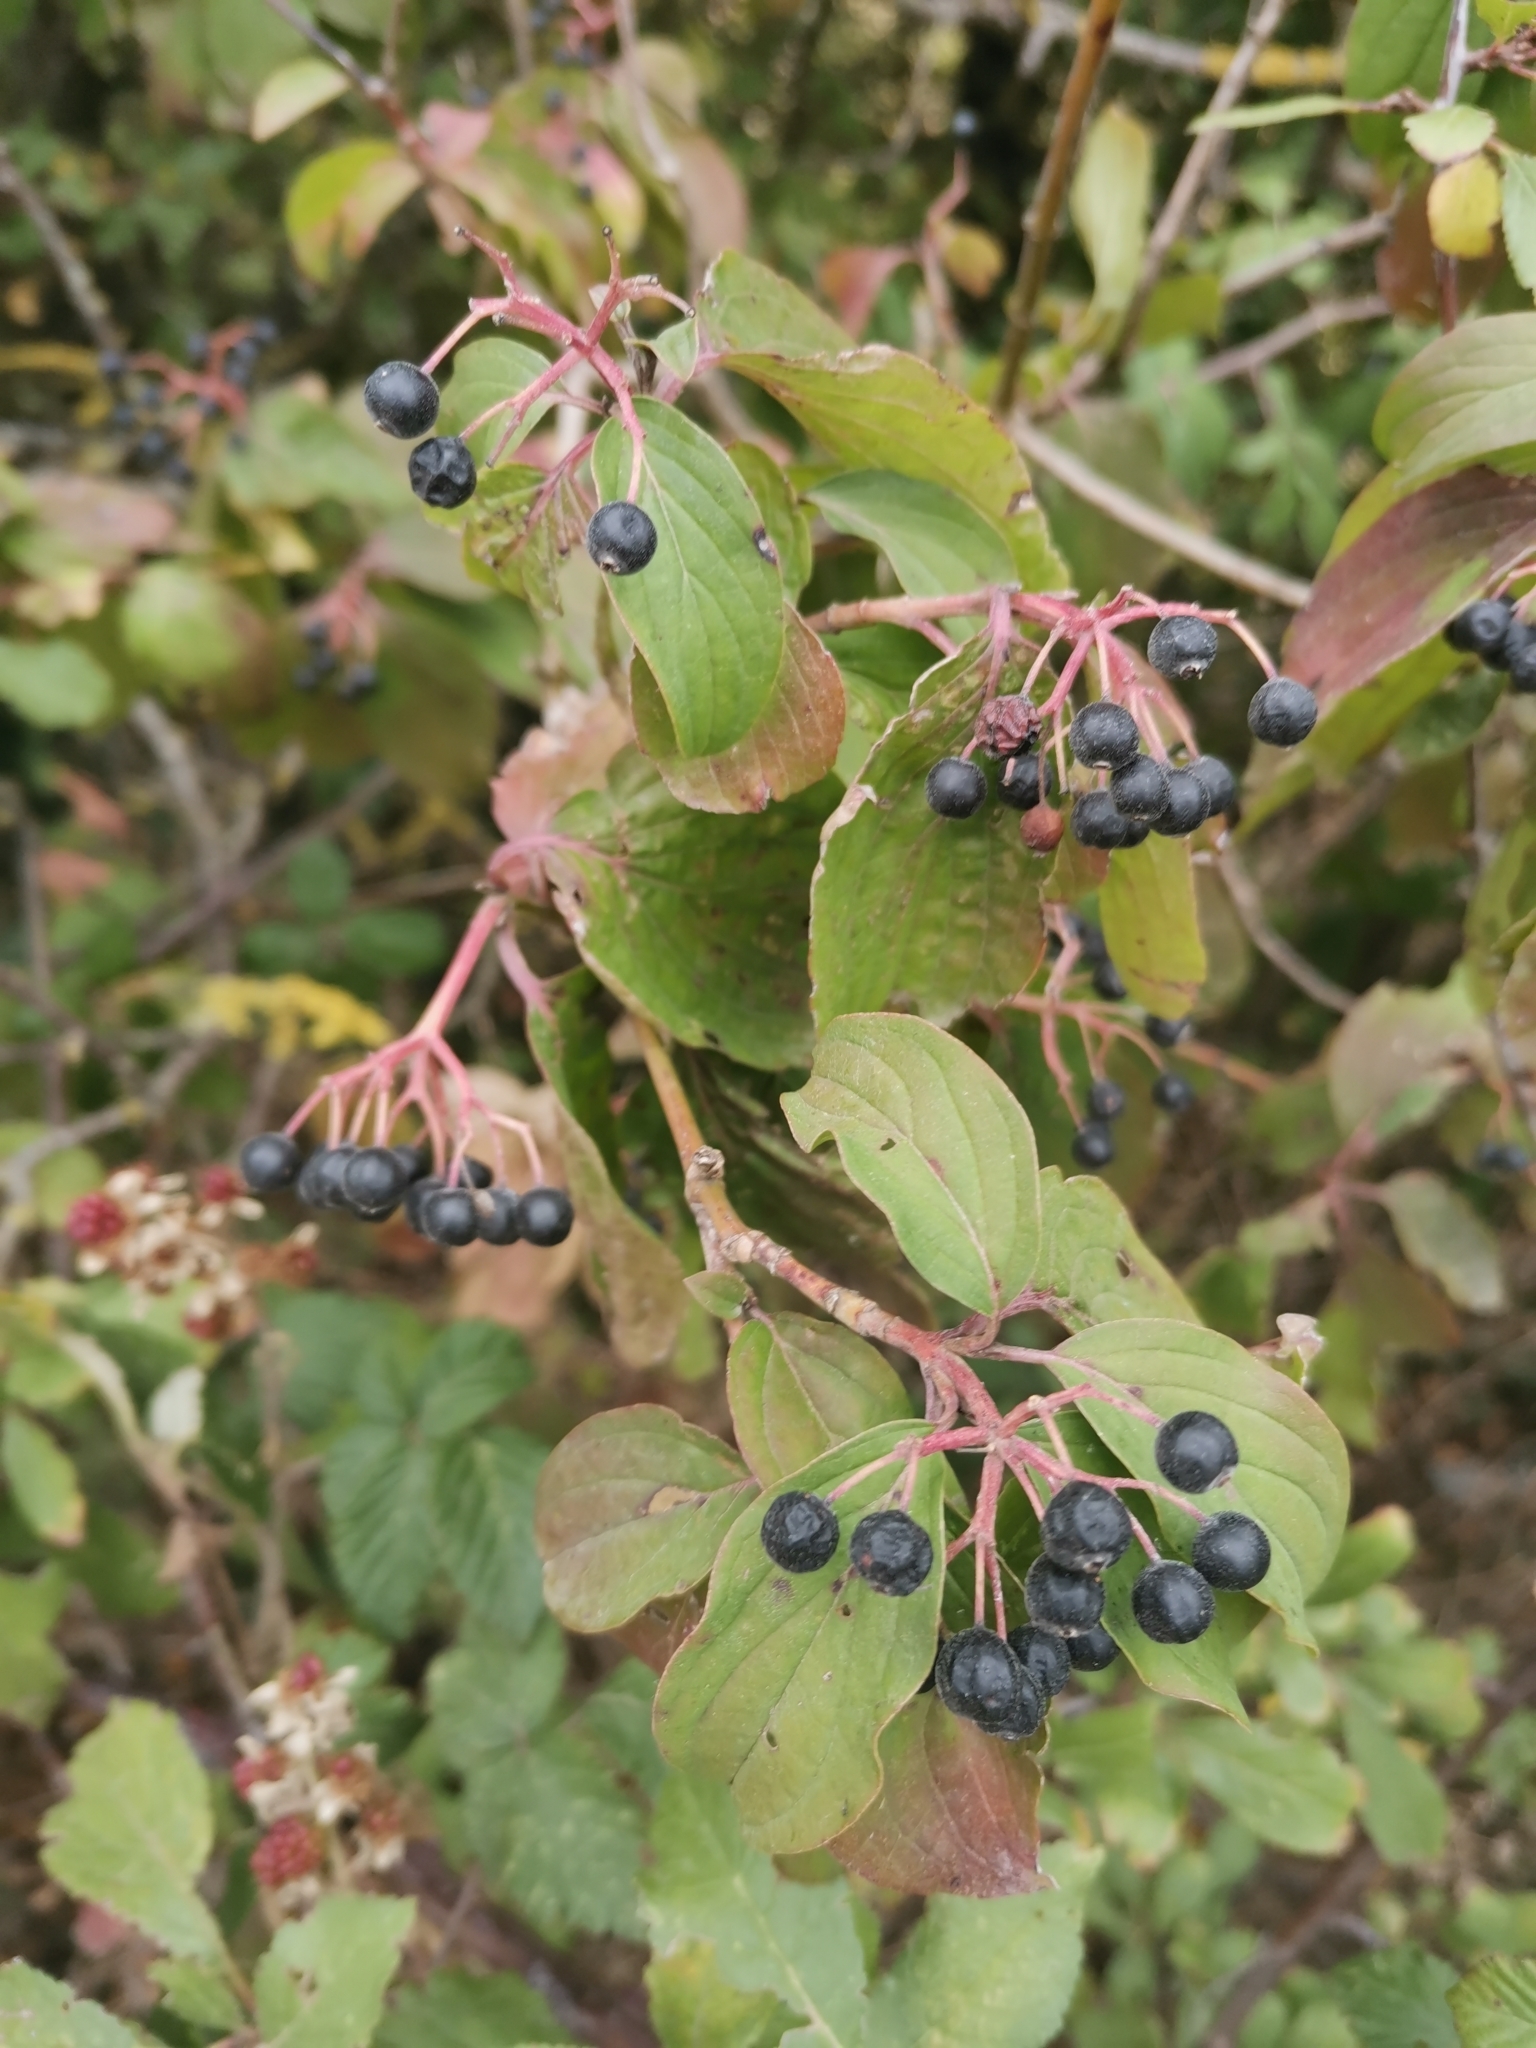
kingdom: Plantae
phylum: Tracheophyta
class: Magnoliopsida
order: Cornales
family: Cornaceae
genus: Cornus
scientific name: Cornus sanguinea
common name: Dogwood
